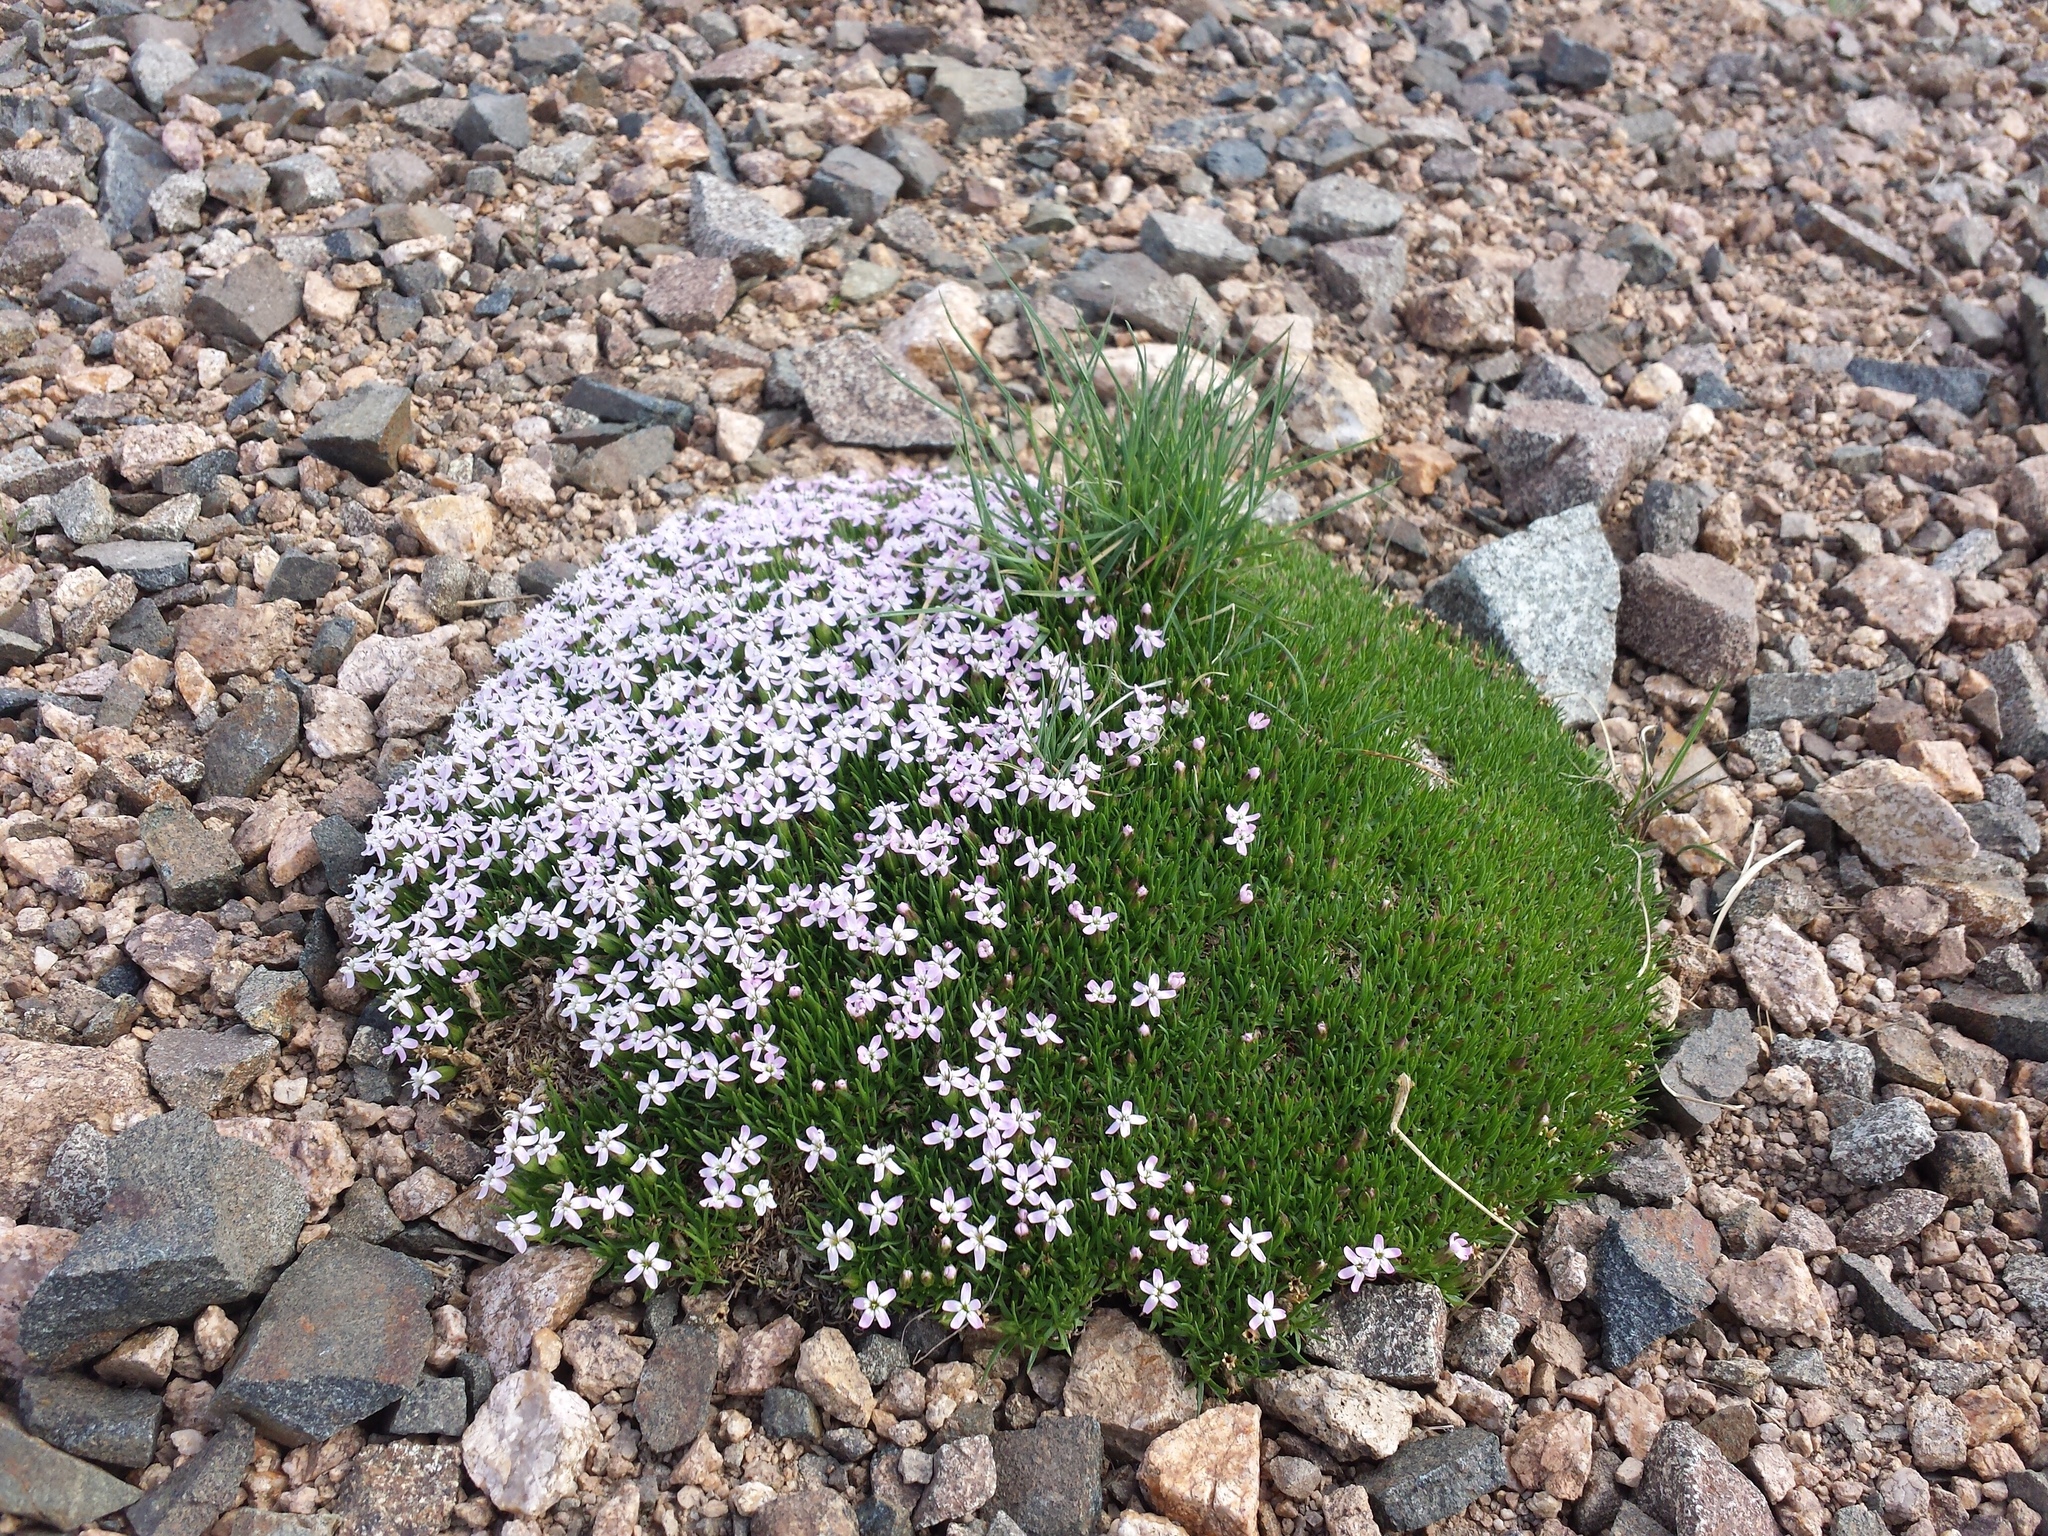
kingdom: Plantae
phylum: Tracheophyta
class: Magnoliopsida
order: Caryophyllales
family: Caryophyllaceae
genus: Silene
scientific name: Silene acaulis
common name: Moss campion
